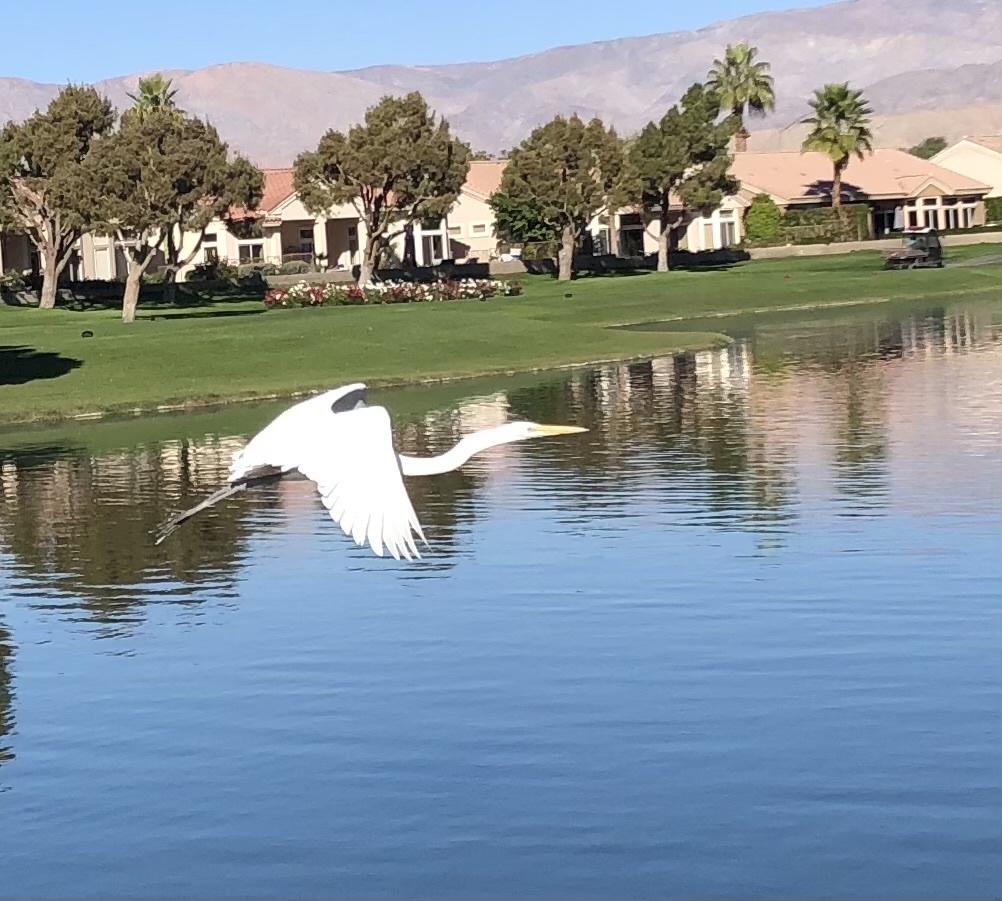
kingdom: Animalia
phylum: Chordata
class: Aves
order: Pelecaniformes
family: Ardeidae
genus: Ardea
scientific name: Ardea alba
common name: Great egret
